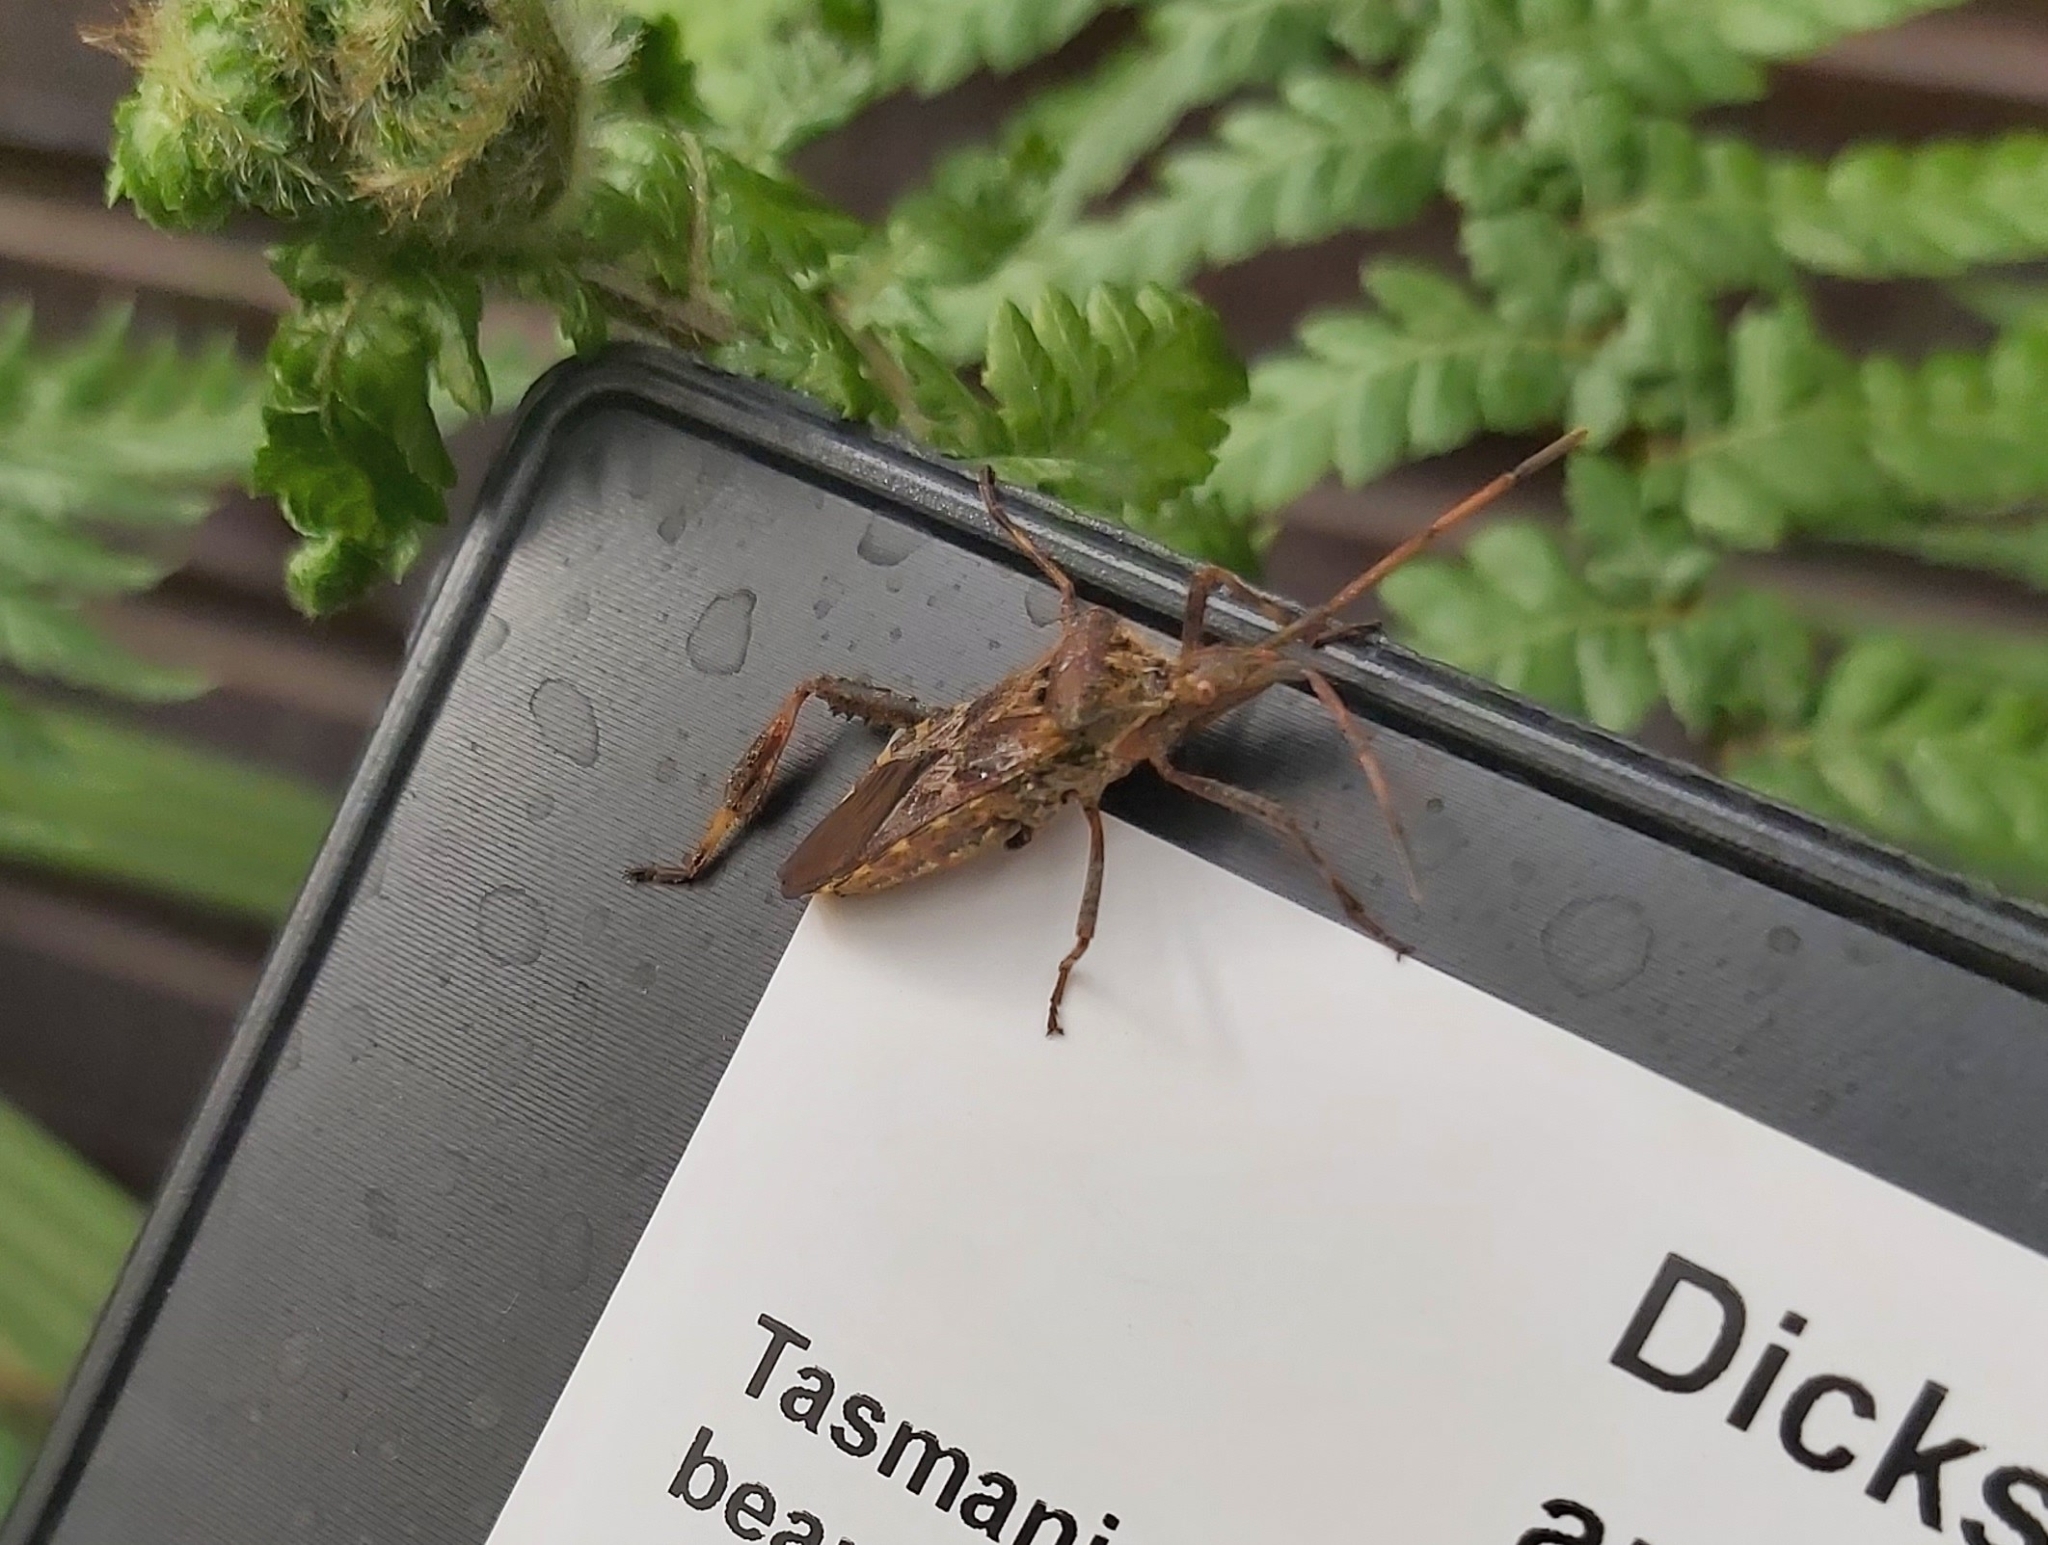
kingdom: Animalia
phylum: Arthropoda
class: Insecta
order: Hemiptera
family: Coreidae
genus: Leptoglossus
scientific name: Leptoglossus occidentalis
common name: Western conifer-seed bug
